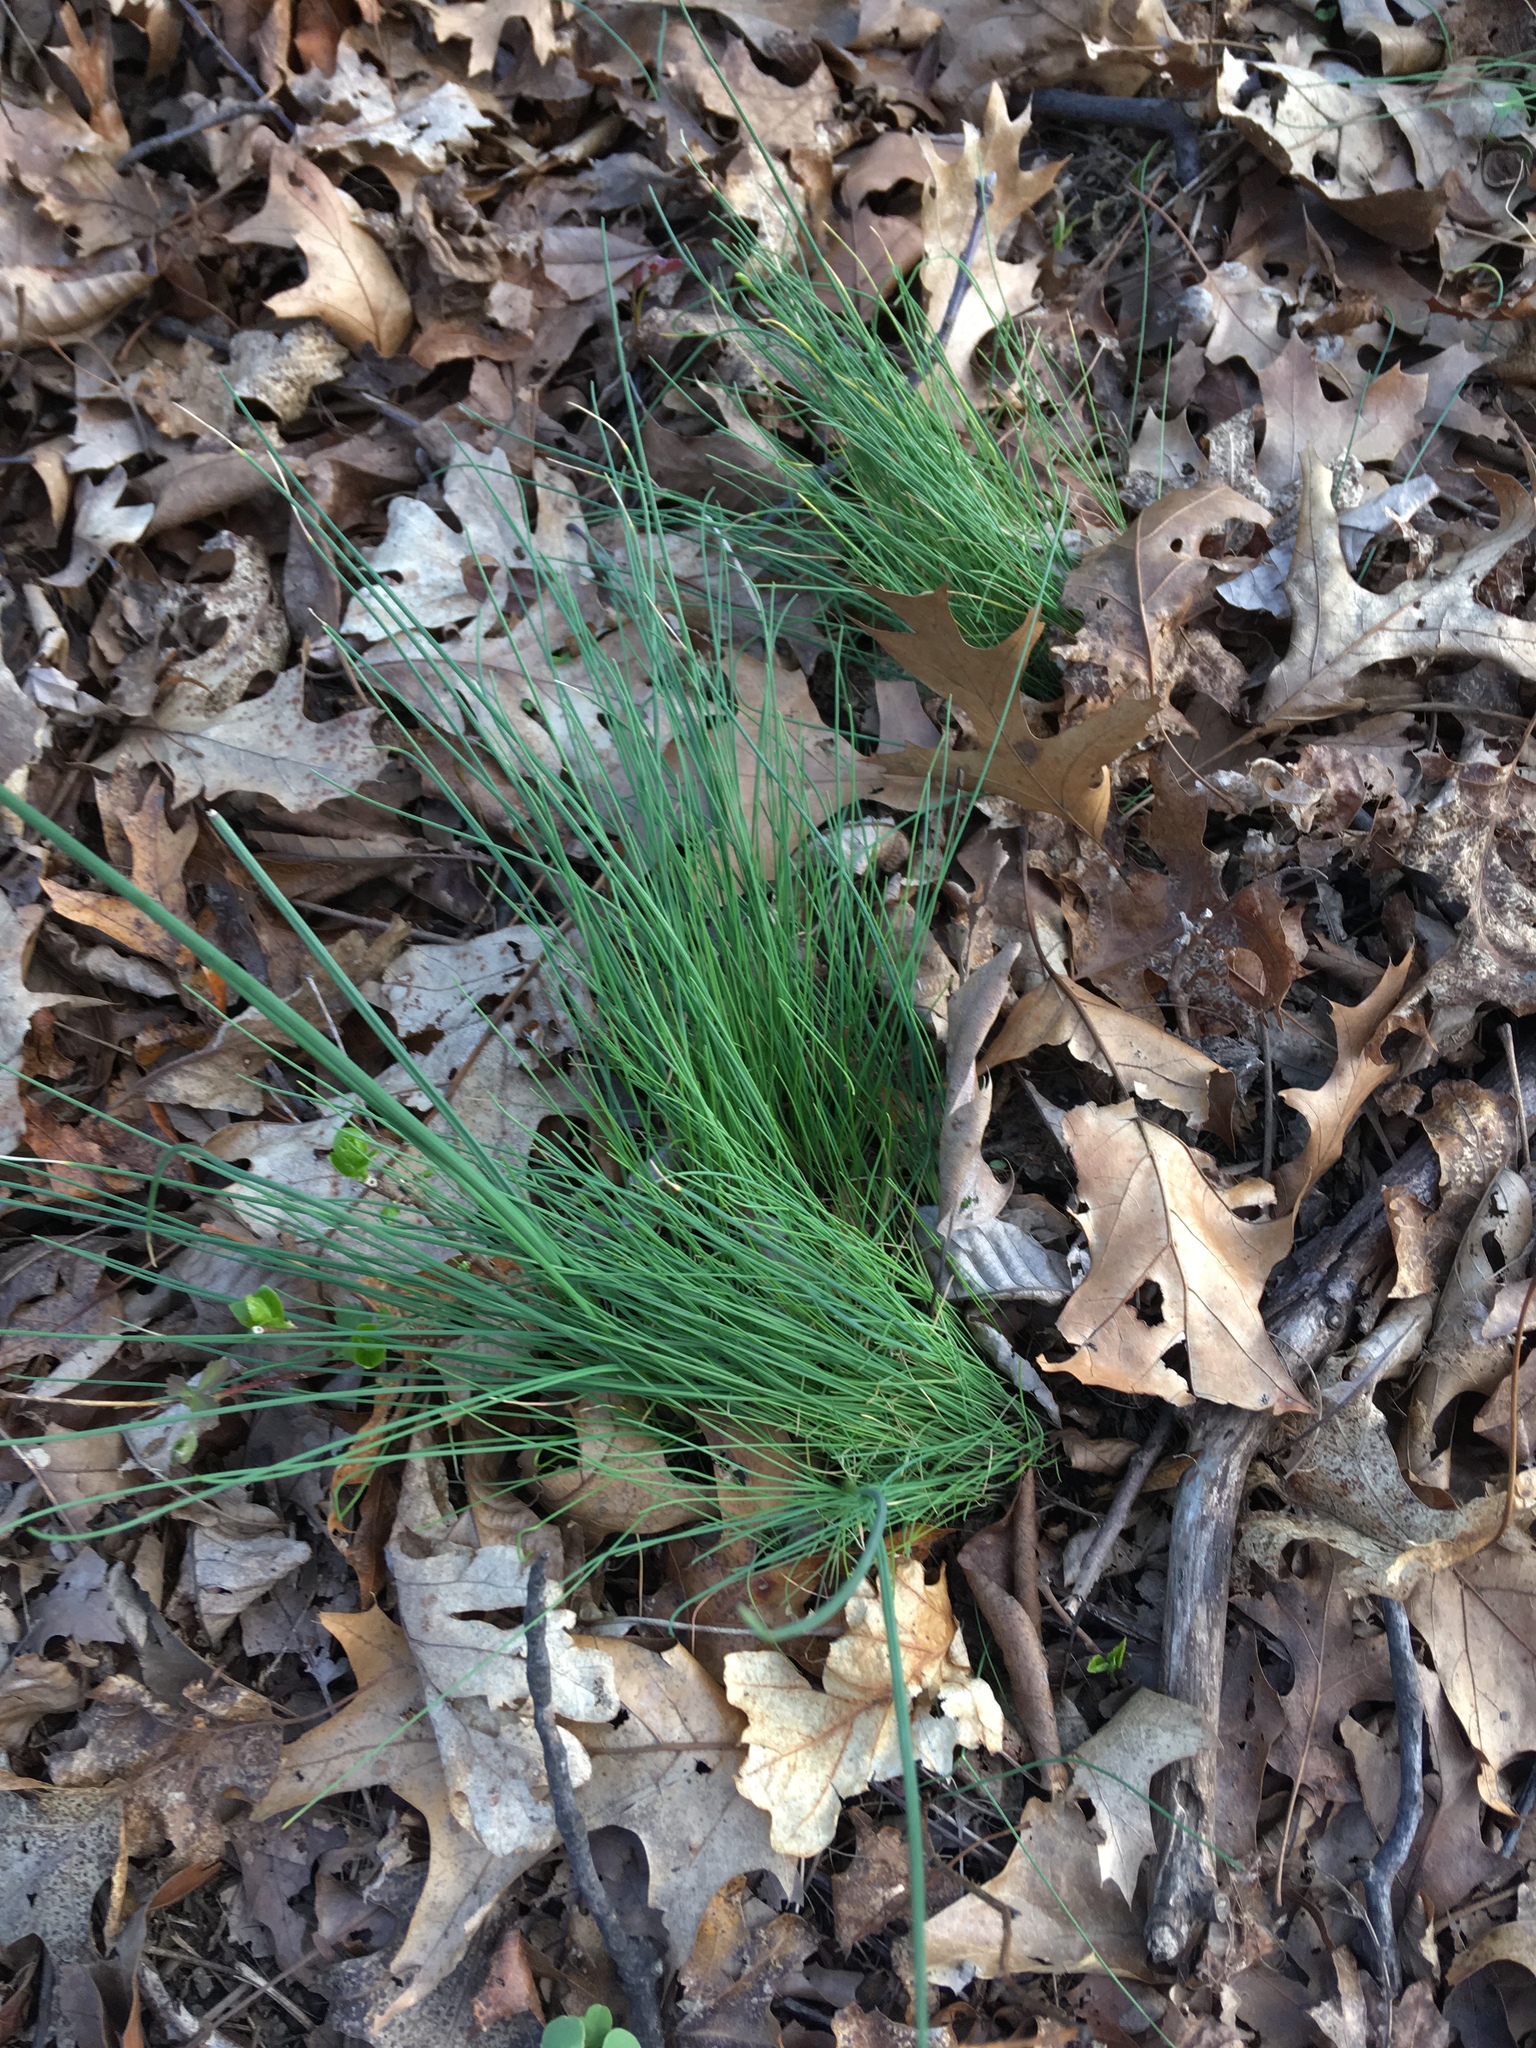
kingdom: Plantae
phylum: Tracheophyta
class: Liliopsida
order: Asparagales
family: Amaryllidaceae
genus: Allium
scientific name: Allium vineale
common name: Crow garlic
